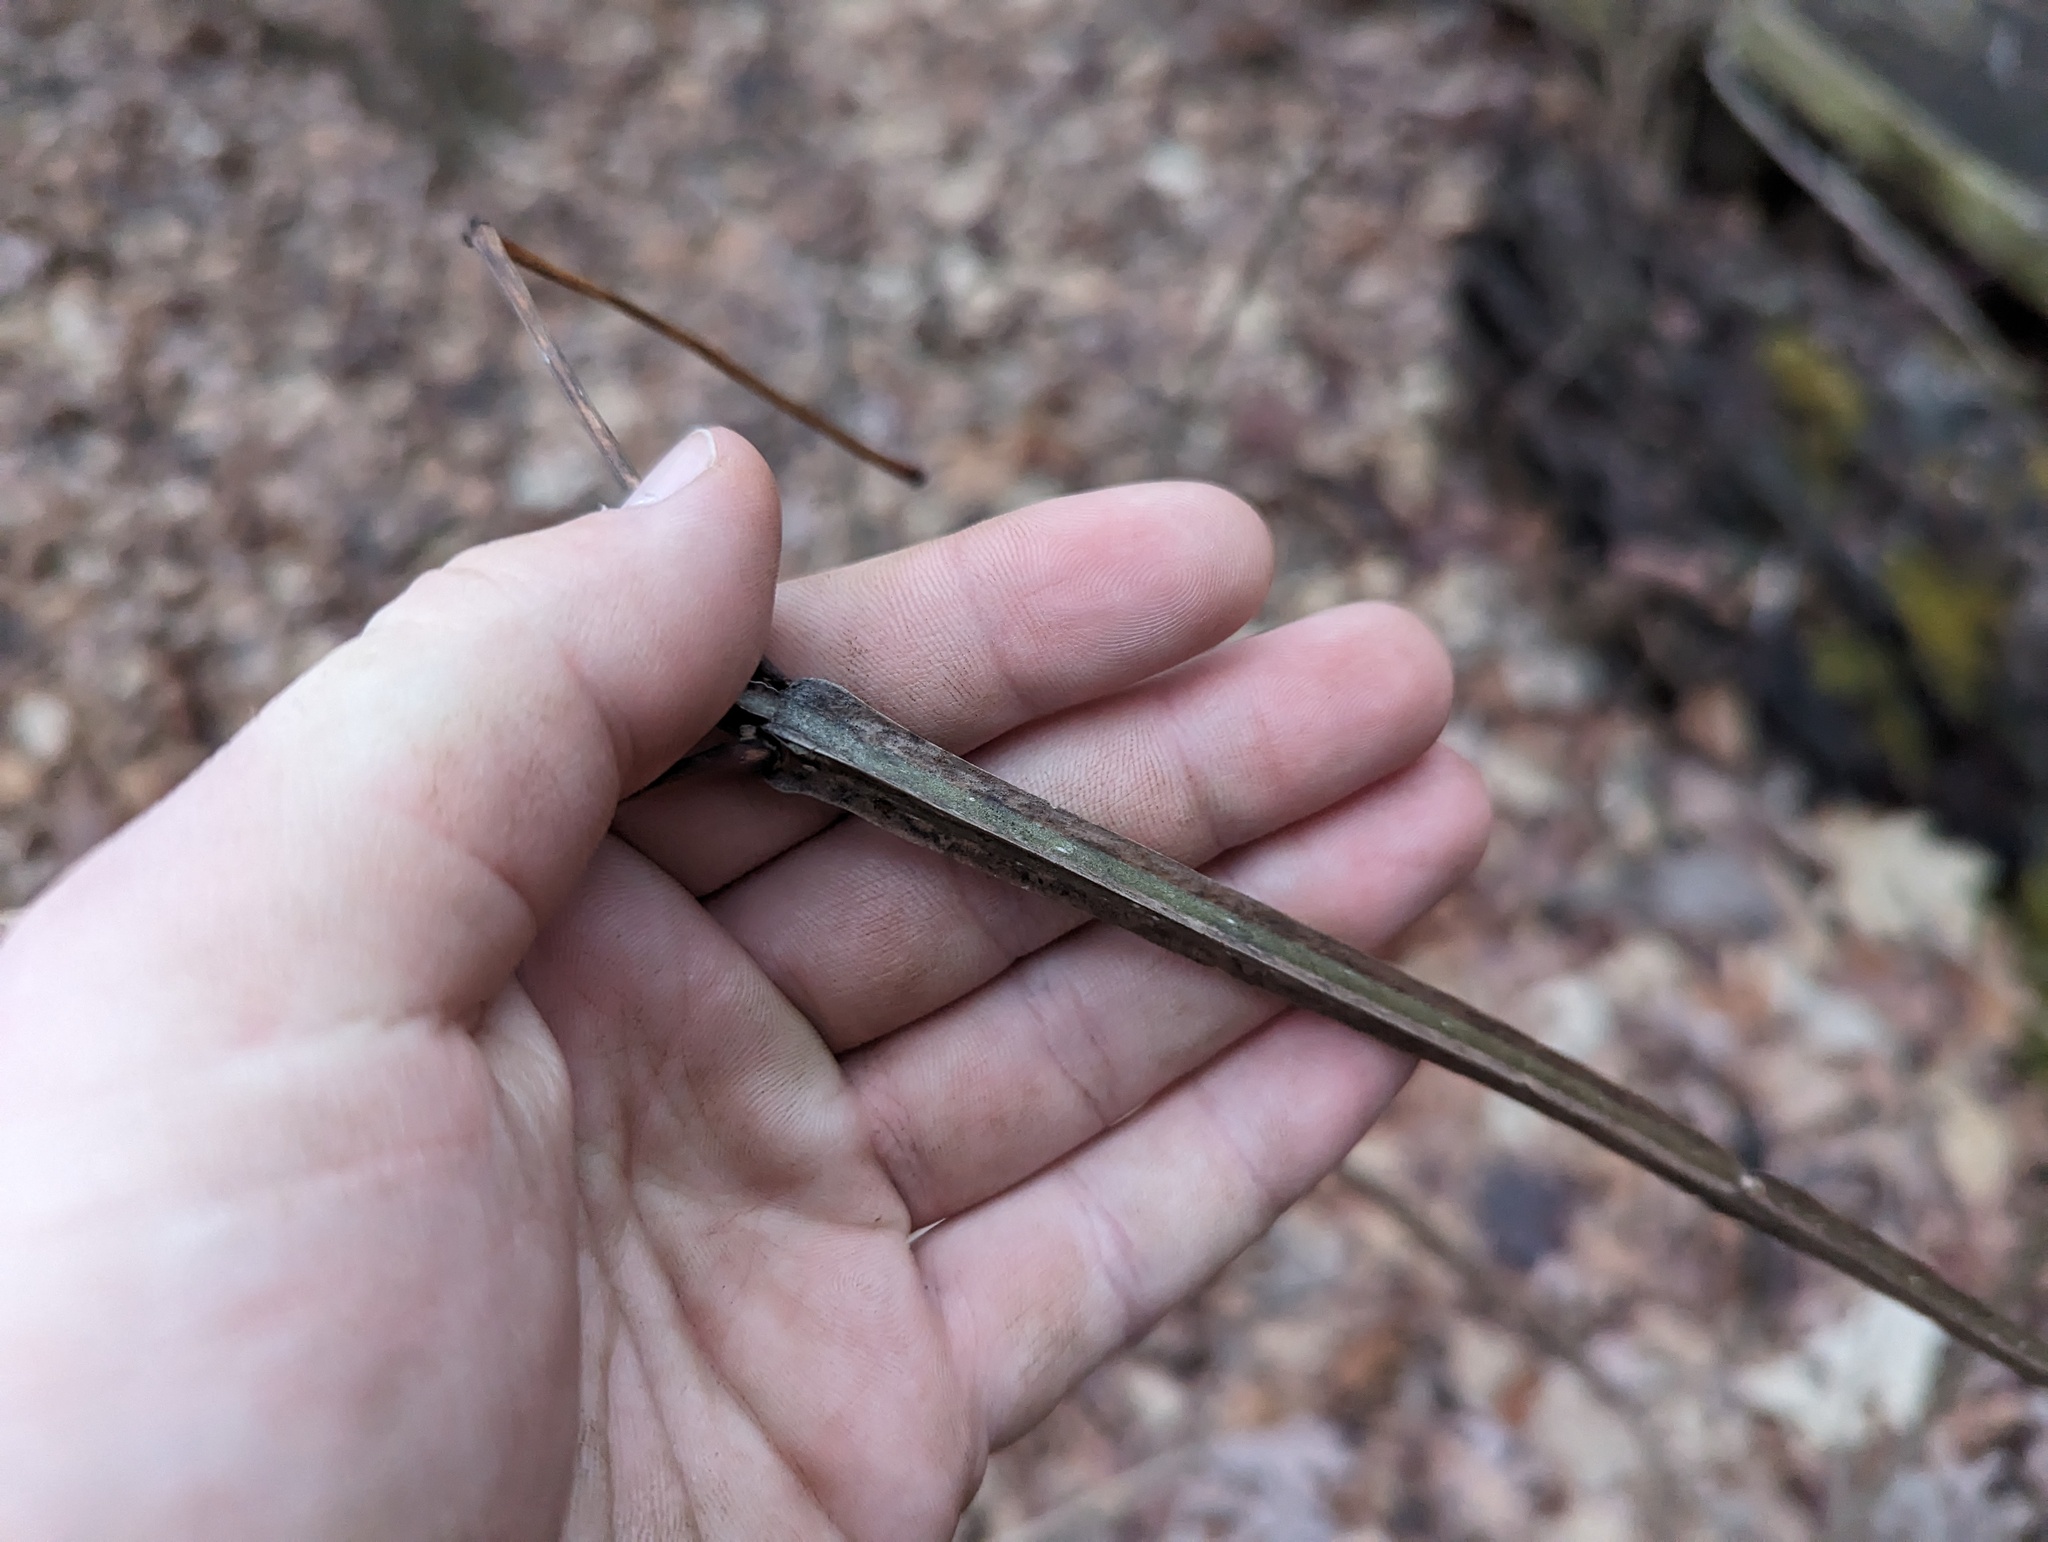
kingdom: Plantae
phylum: Tracheophyta
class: Magnoliopsida
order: Lamiales
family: Oleaceae
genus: Fraxinus
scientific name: Fraxinus quadrangulata
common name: Blue ash
